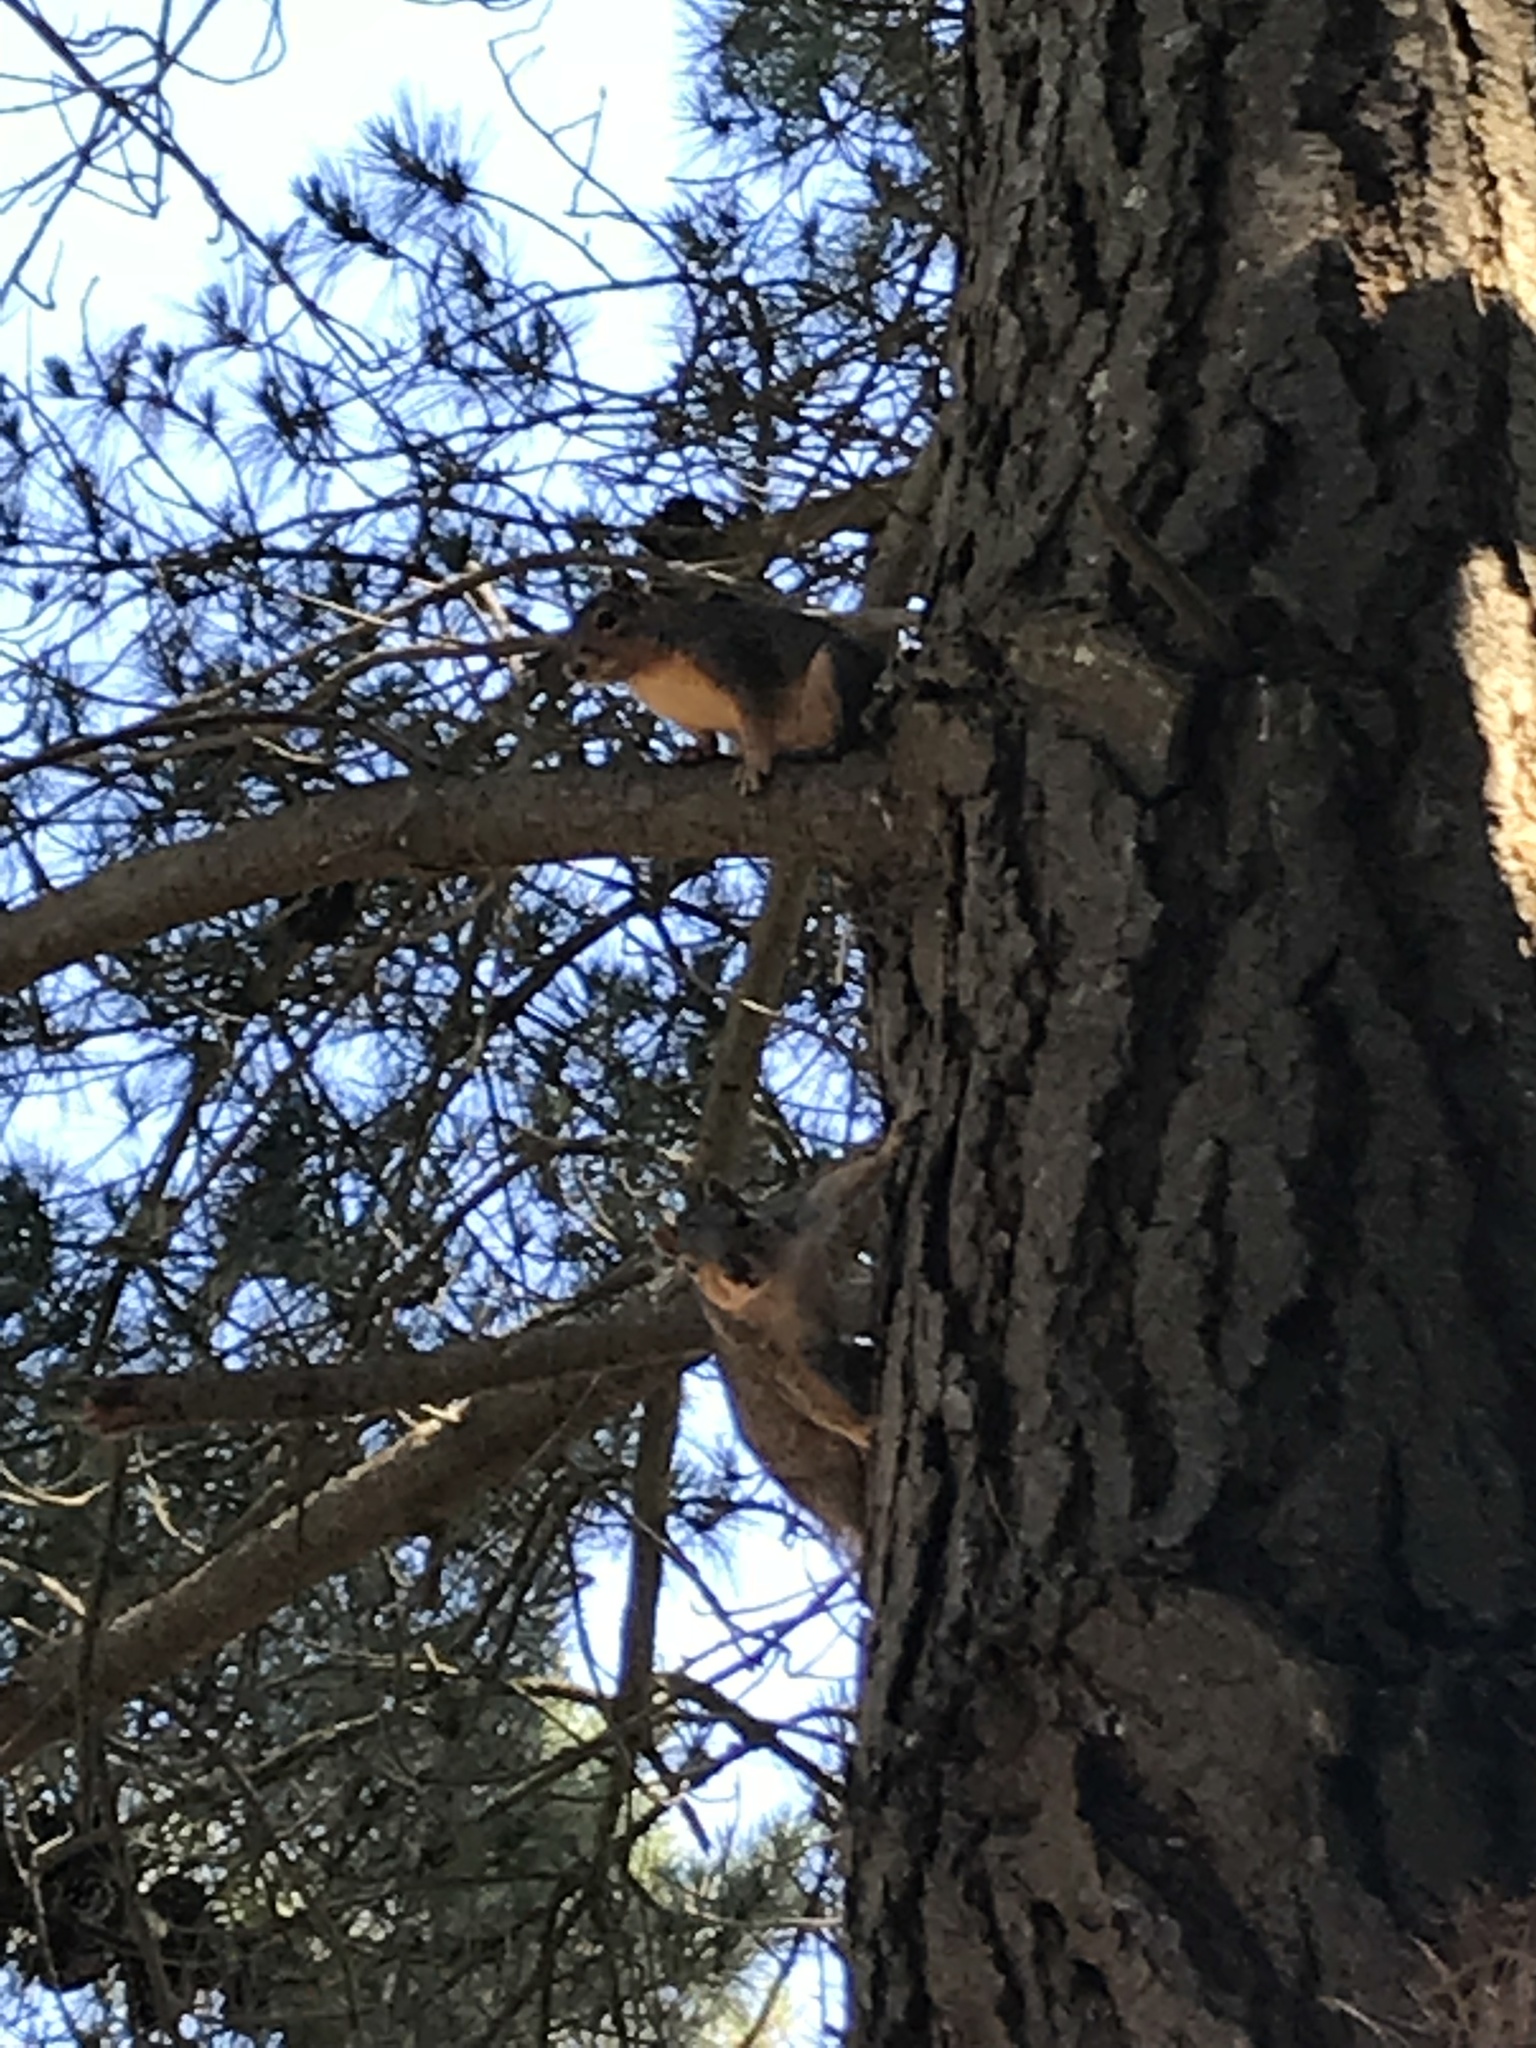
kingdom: Animalia
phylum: Chordata
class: Mammalia
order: Rodentia
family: Sciuridae
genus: Sciurus
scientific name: Sciurus niger
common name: Fox squirrel
